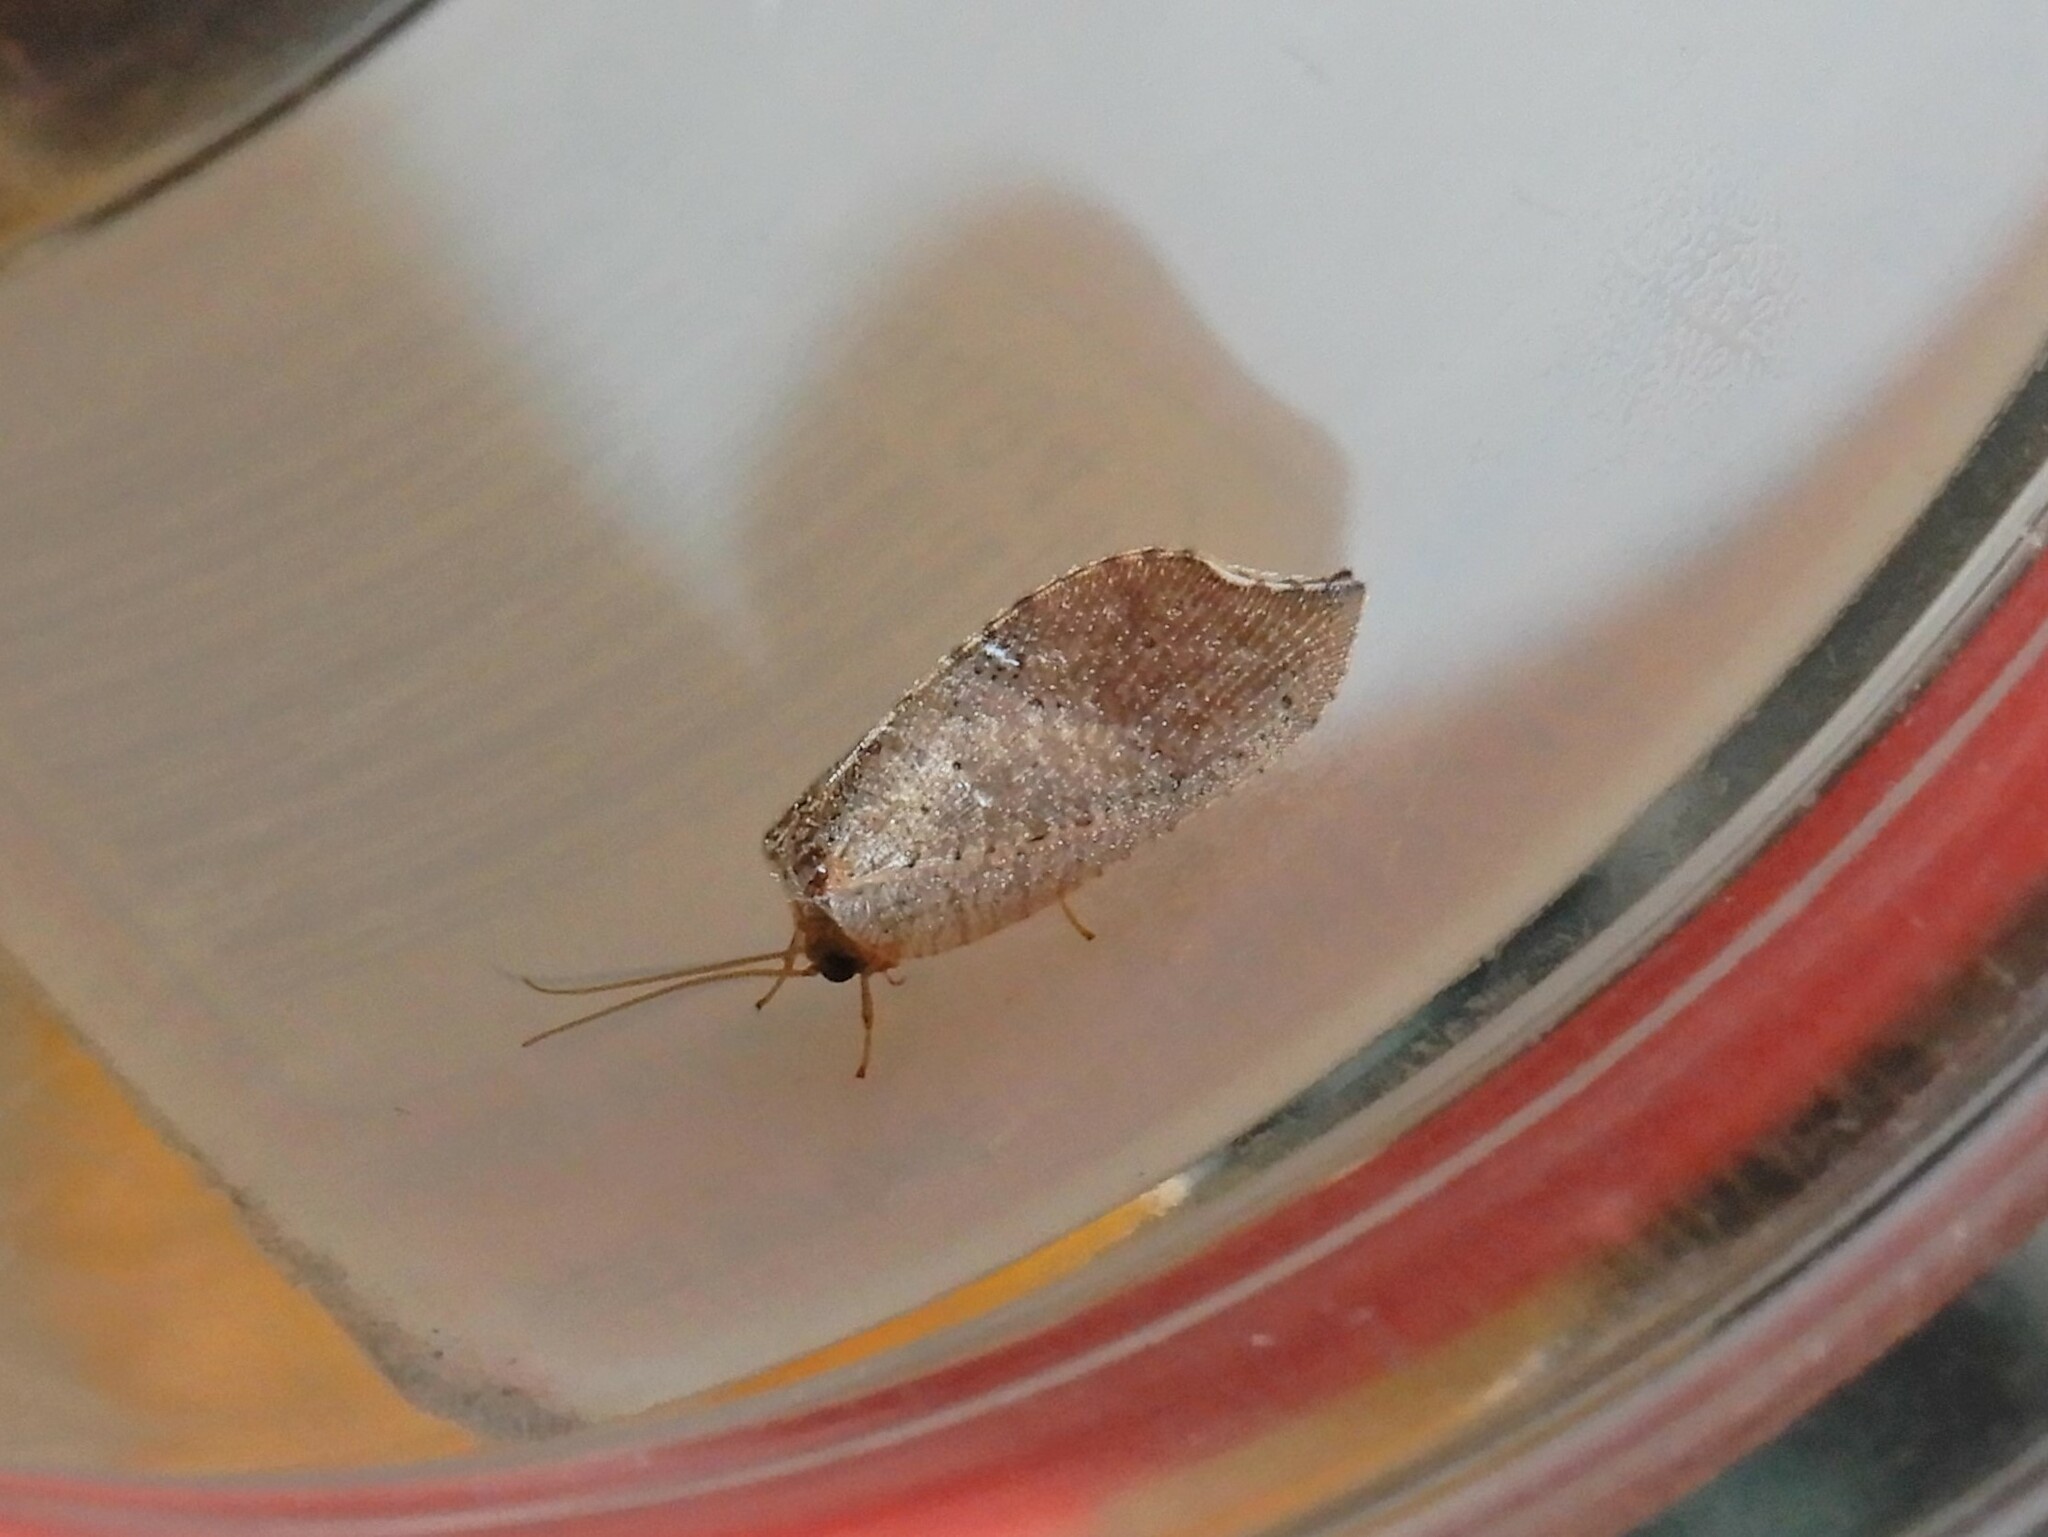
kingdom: Animalia
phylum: Arthropoda
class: Insecta
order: Neuroptera
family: Hemerobiidae
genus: Drepanacra
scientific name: Drepanacra binocula
